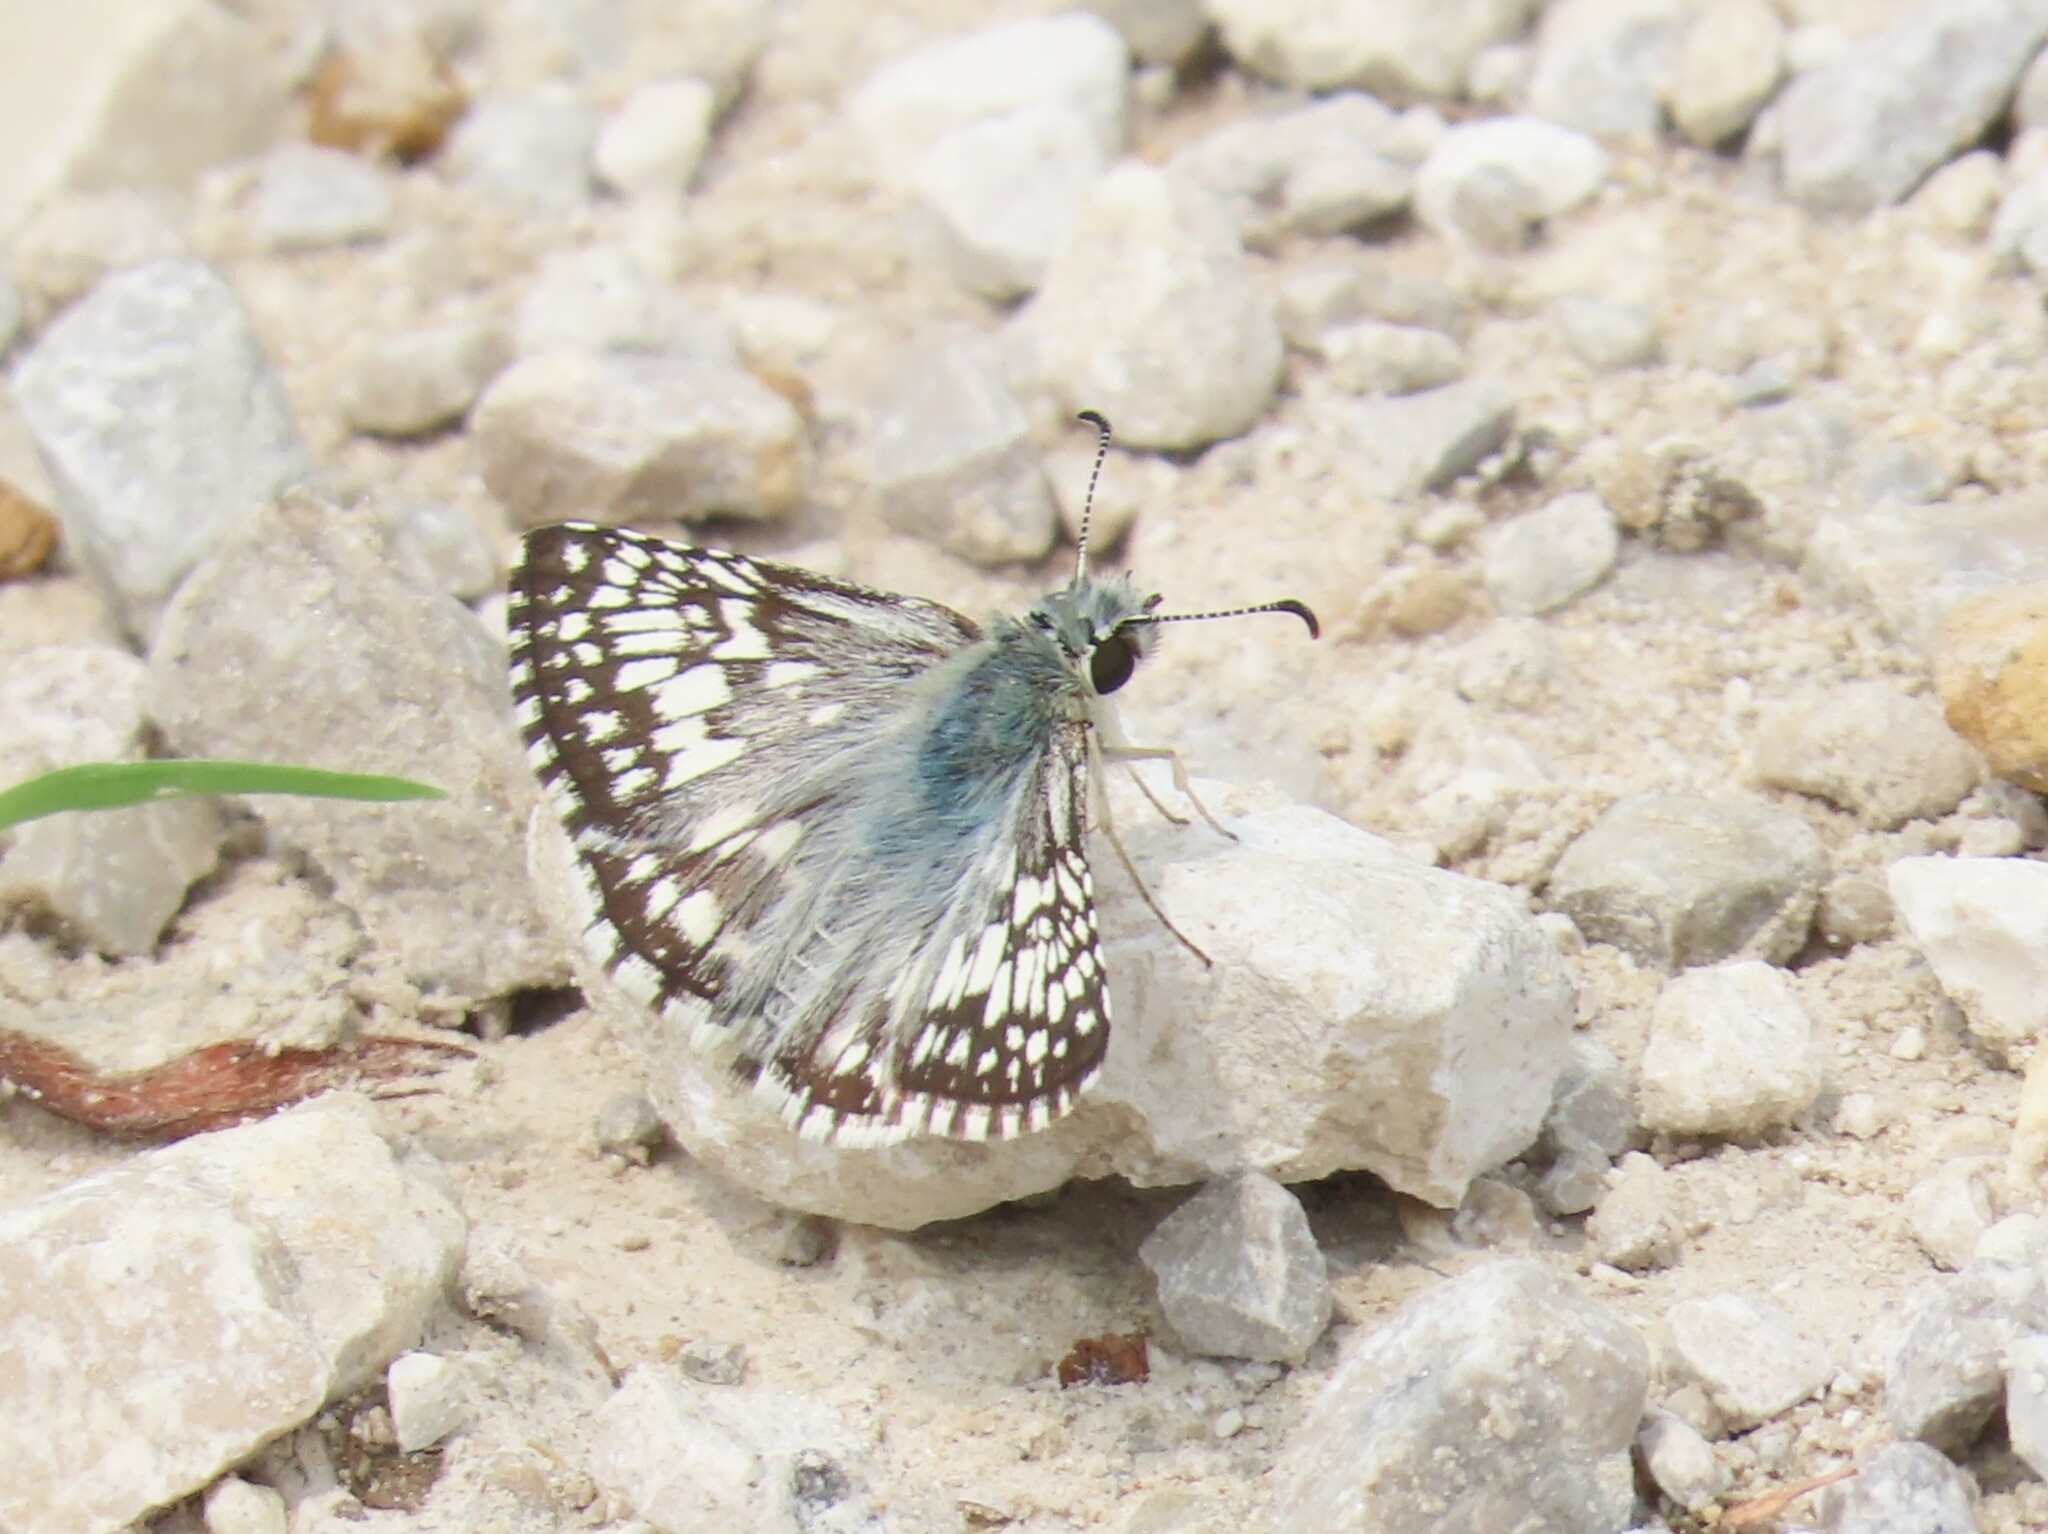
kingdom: Animalia
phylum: Arthropoda
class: Insecta
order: Lepidoptera
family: Hesperiidae
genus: Burnsius
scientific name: Burnsius communis
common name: Common checkered-skipper
